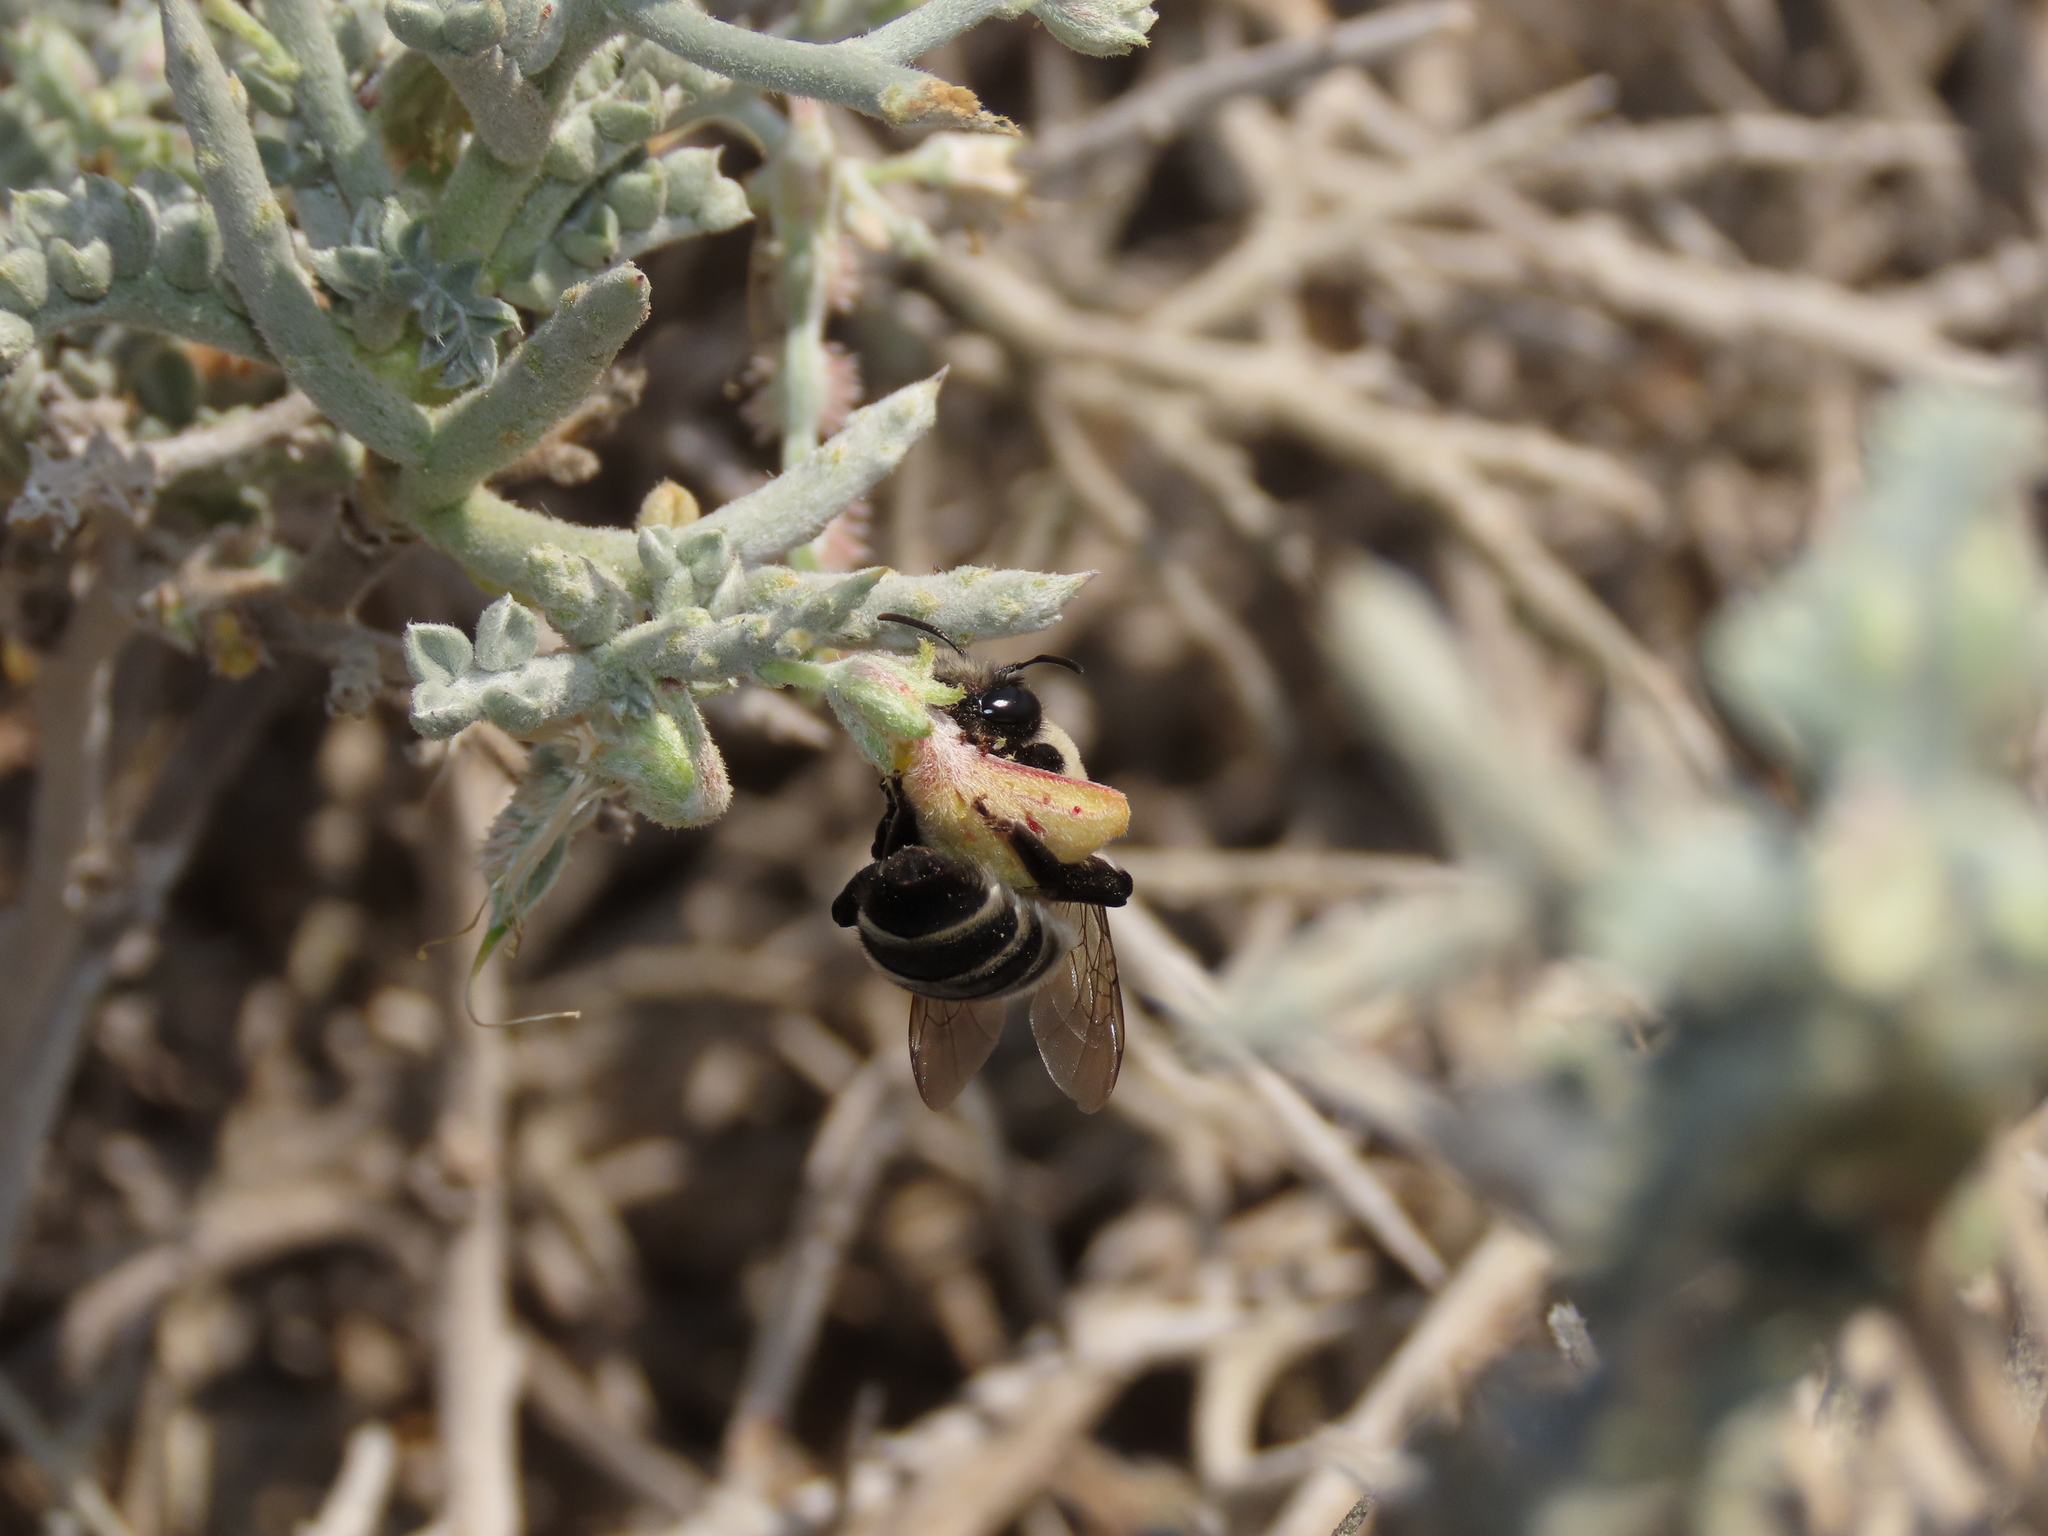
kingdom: Animalia
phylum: Arthropoda
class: Insecta
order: Hymenoptera
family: Colletidae
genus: Caupolicana
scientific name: Caupolicana quadrifasciata
